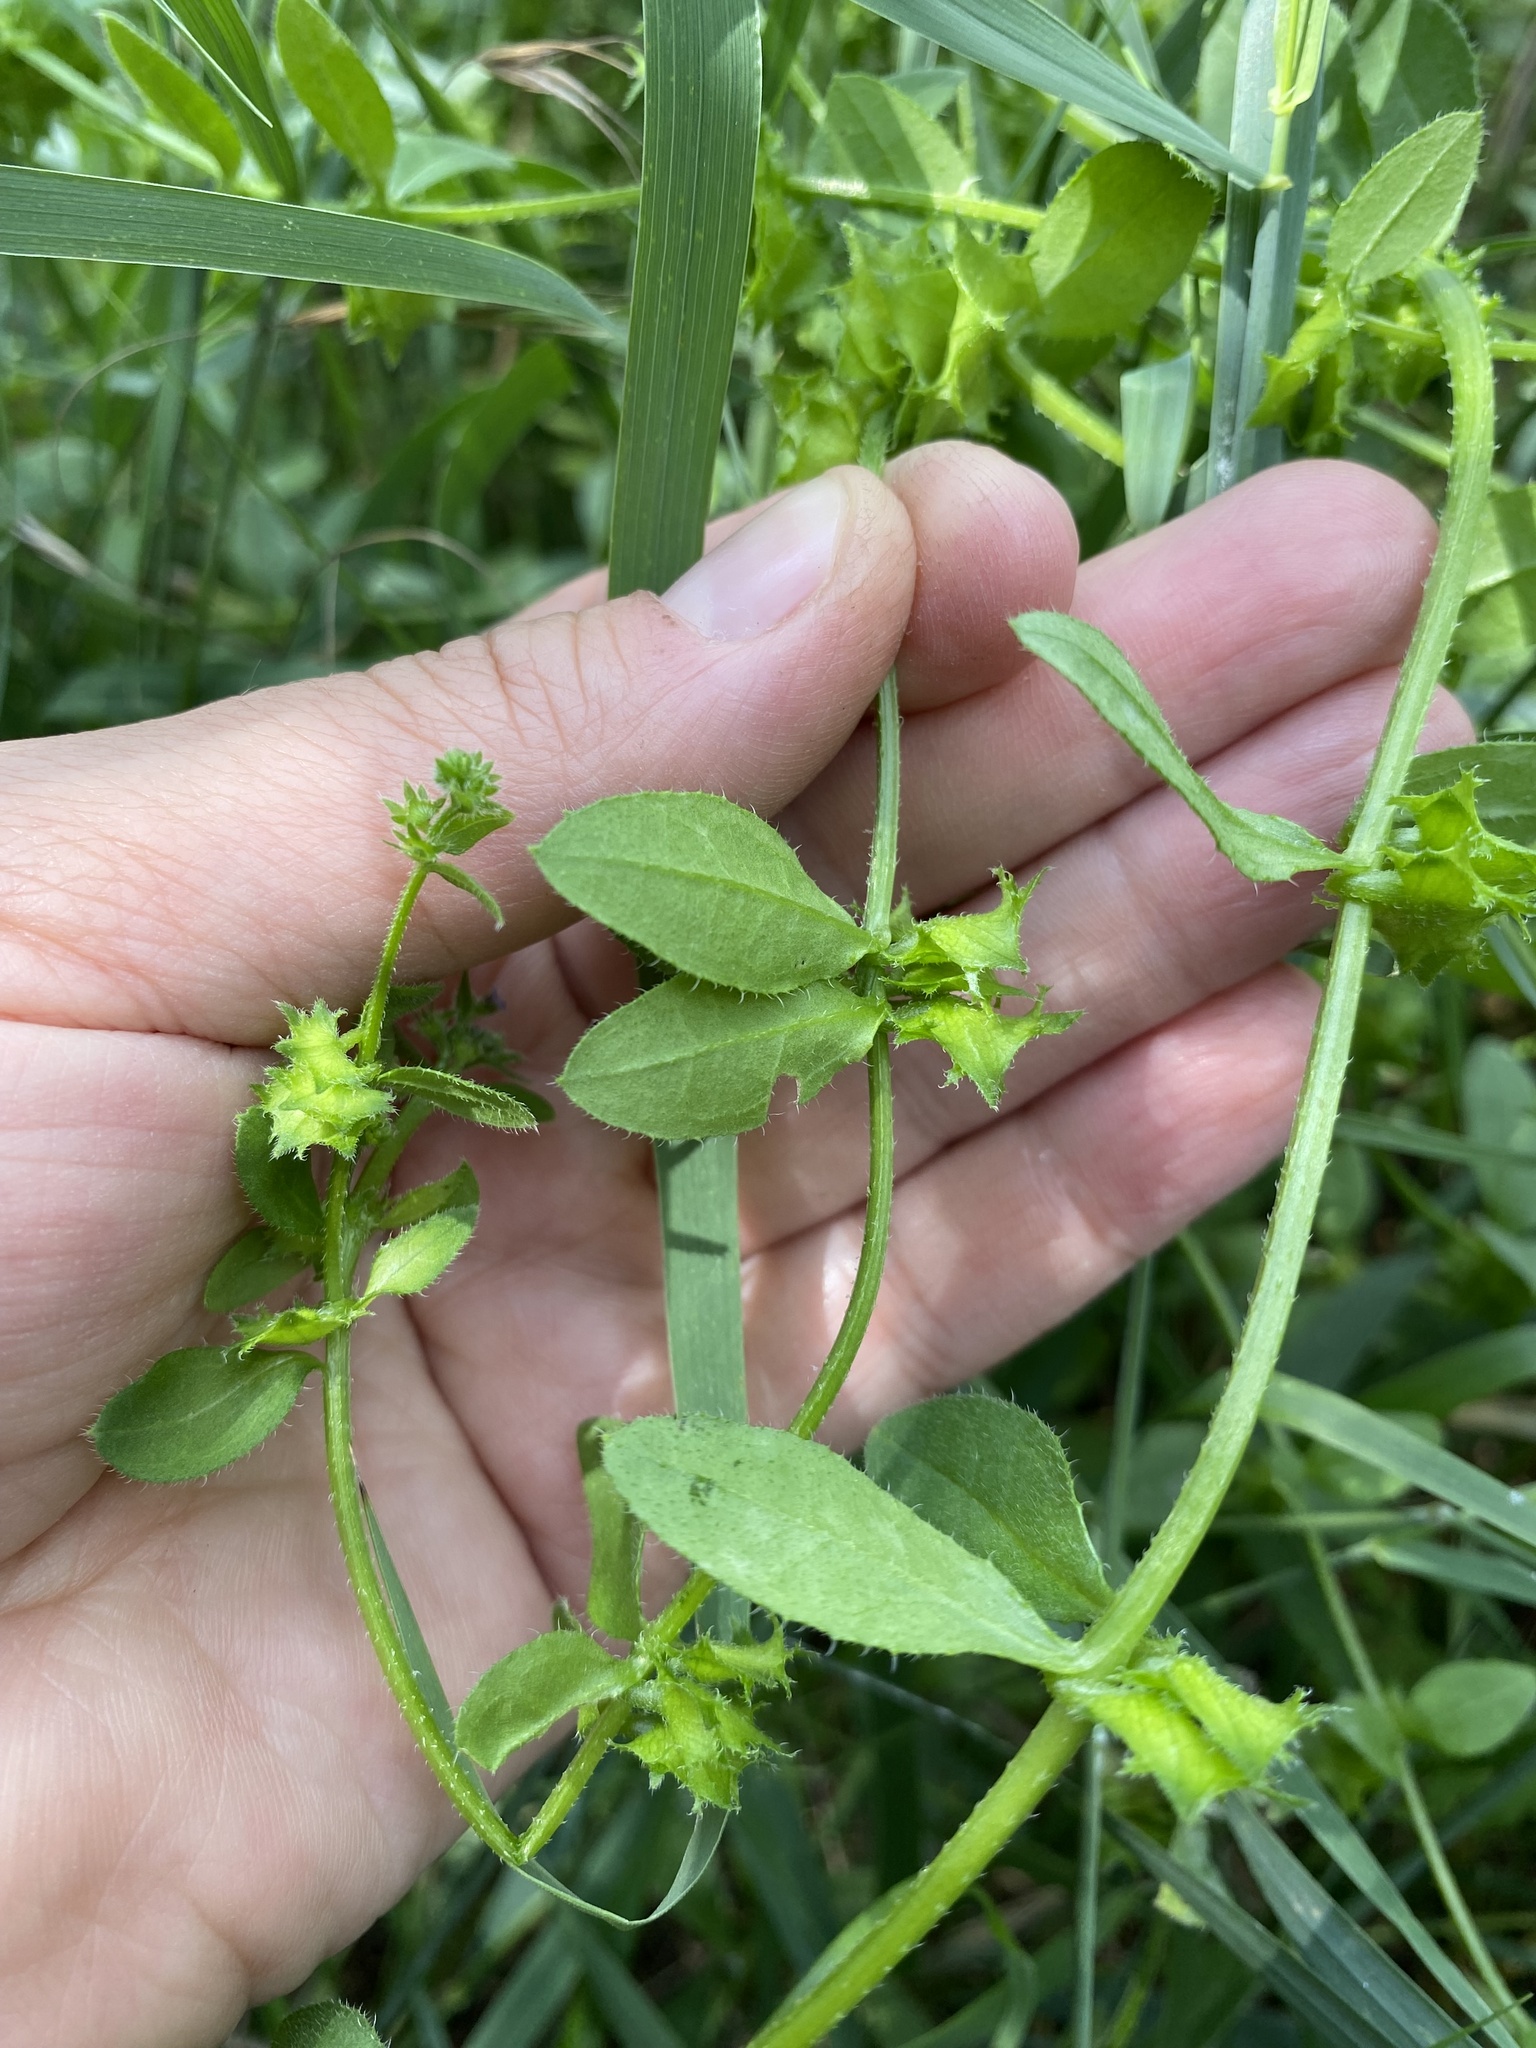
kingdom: Plantae
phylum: Tracheophyta
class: Magnoliopsida
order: Boraginales
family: Boraginaceae
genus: Asperugo
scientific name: Asperugo procumbens
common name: Madwort
